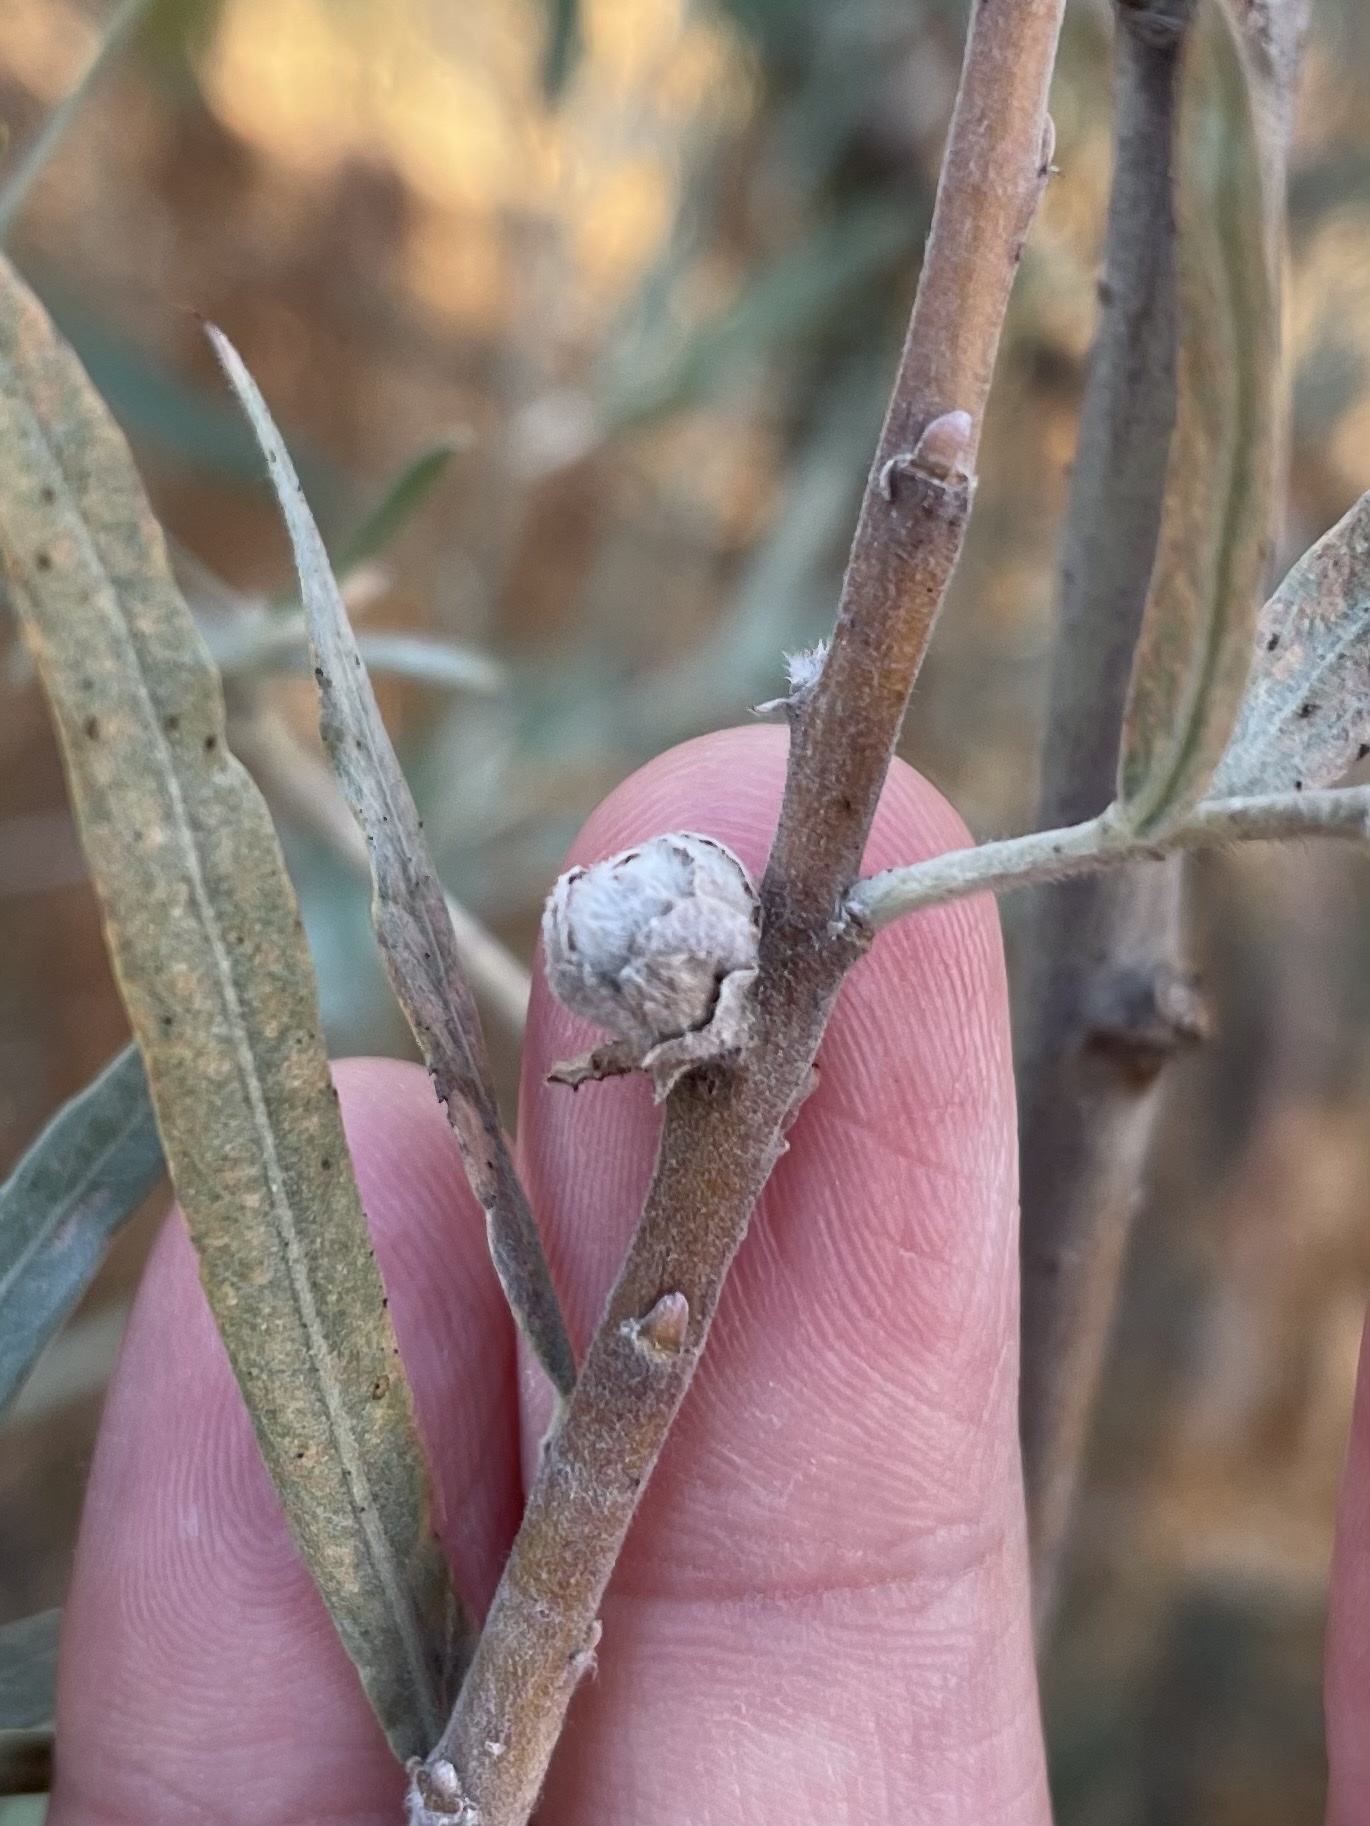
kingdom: Animalia
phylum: Arthropoda
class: Insecta
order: Diptera
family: Cecidomyiidae
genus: Rabdophaga
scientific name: Rabdophaga strobiloides
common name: Willow pinecone gall midge
